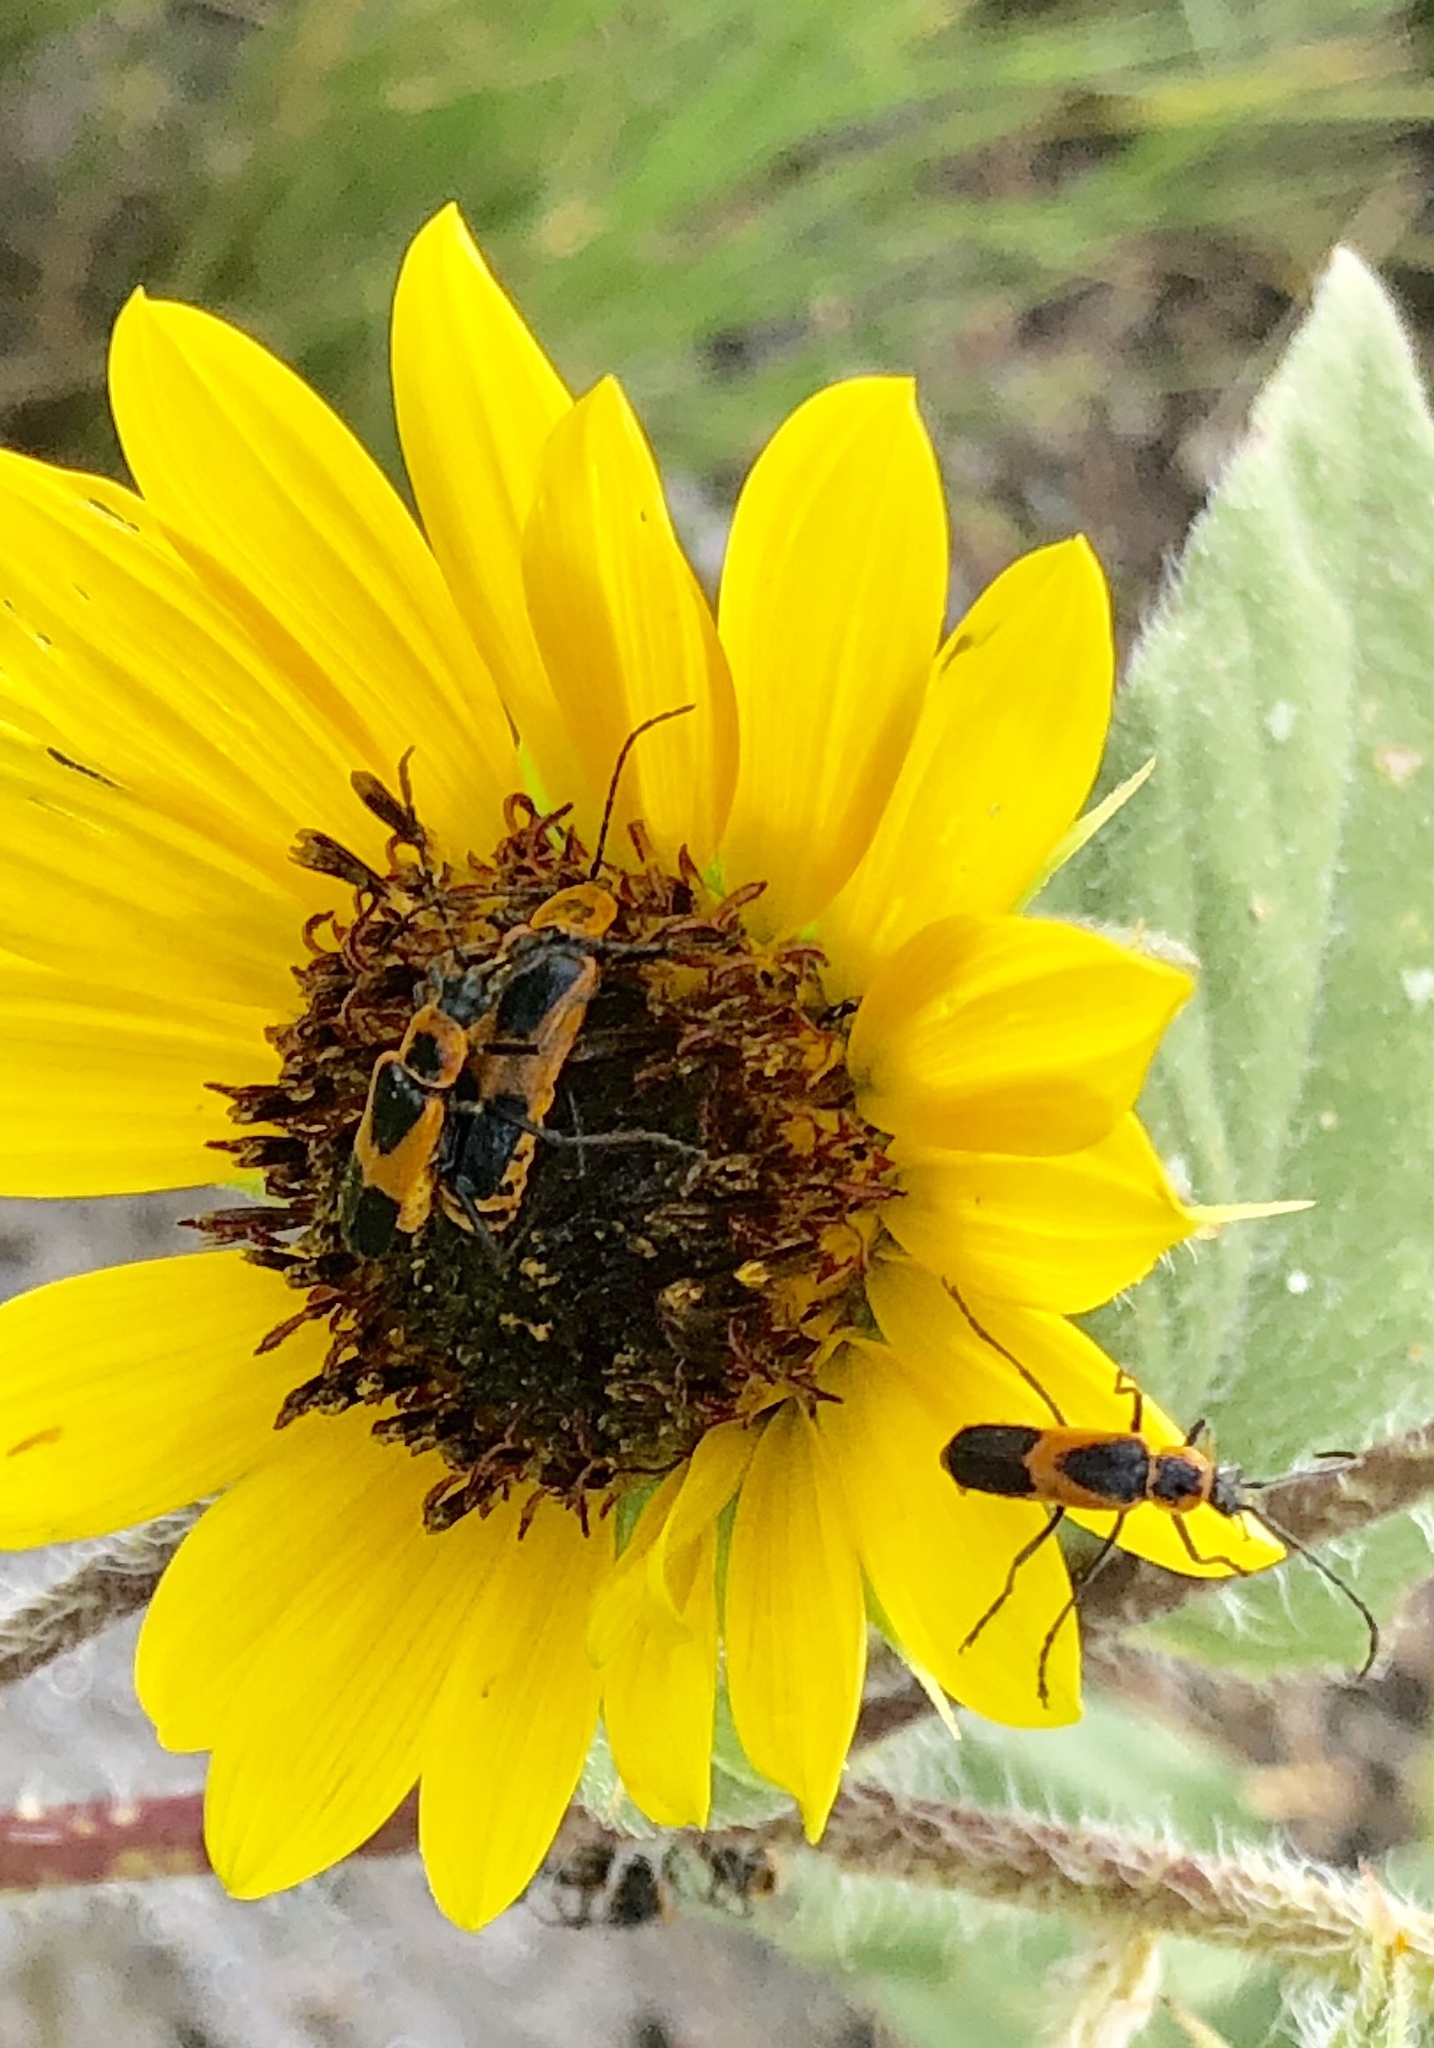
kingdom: Animalia
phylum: Arthropoda
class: Insecta
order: Coleoptera
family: Cantharidae
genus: Chauliognathus
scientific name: Chauliognathus basalis
